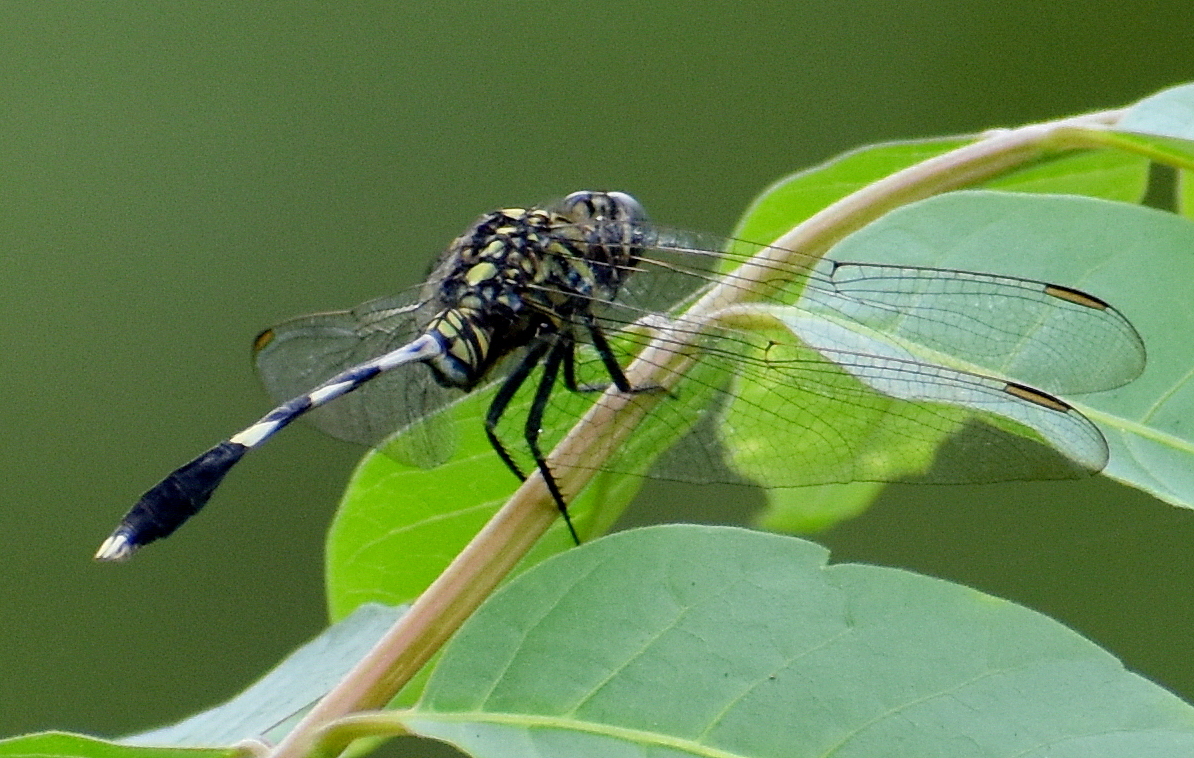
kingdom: Animalia
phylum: Arthropoda
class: Insecta
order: Odonata
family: Libellulidae
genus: Orthetrum
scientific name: Orthetrum sabina
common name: Slender skimmer
